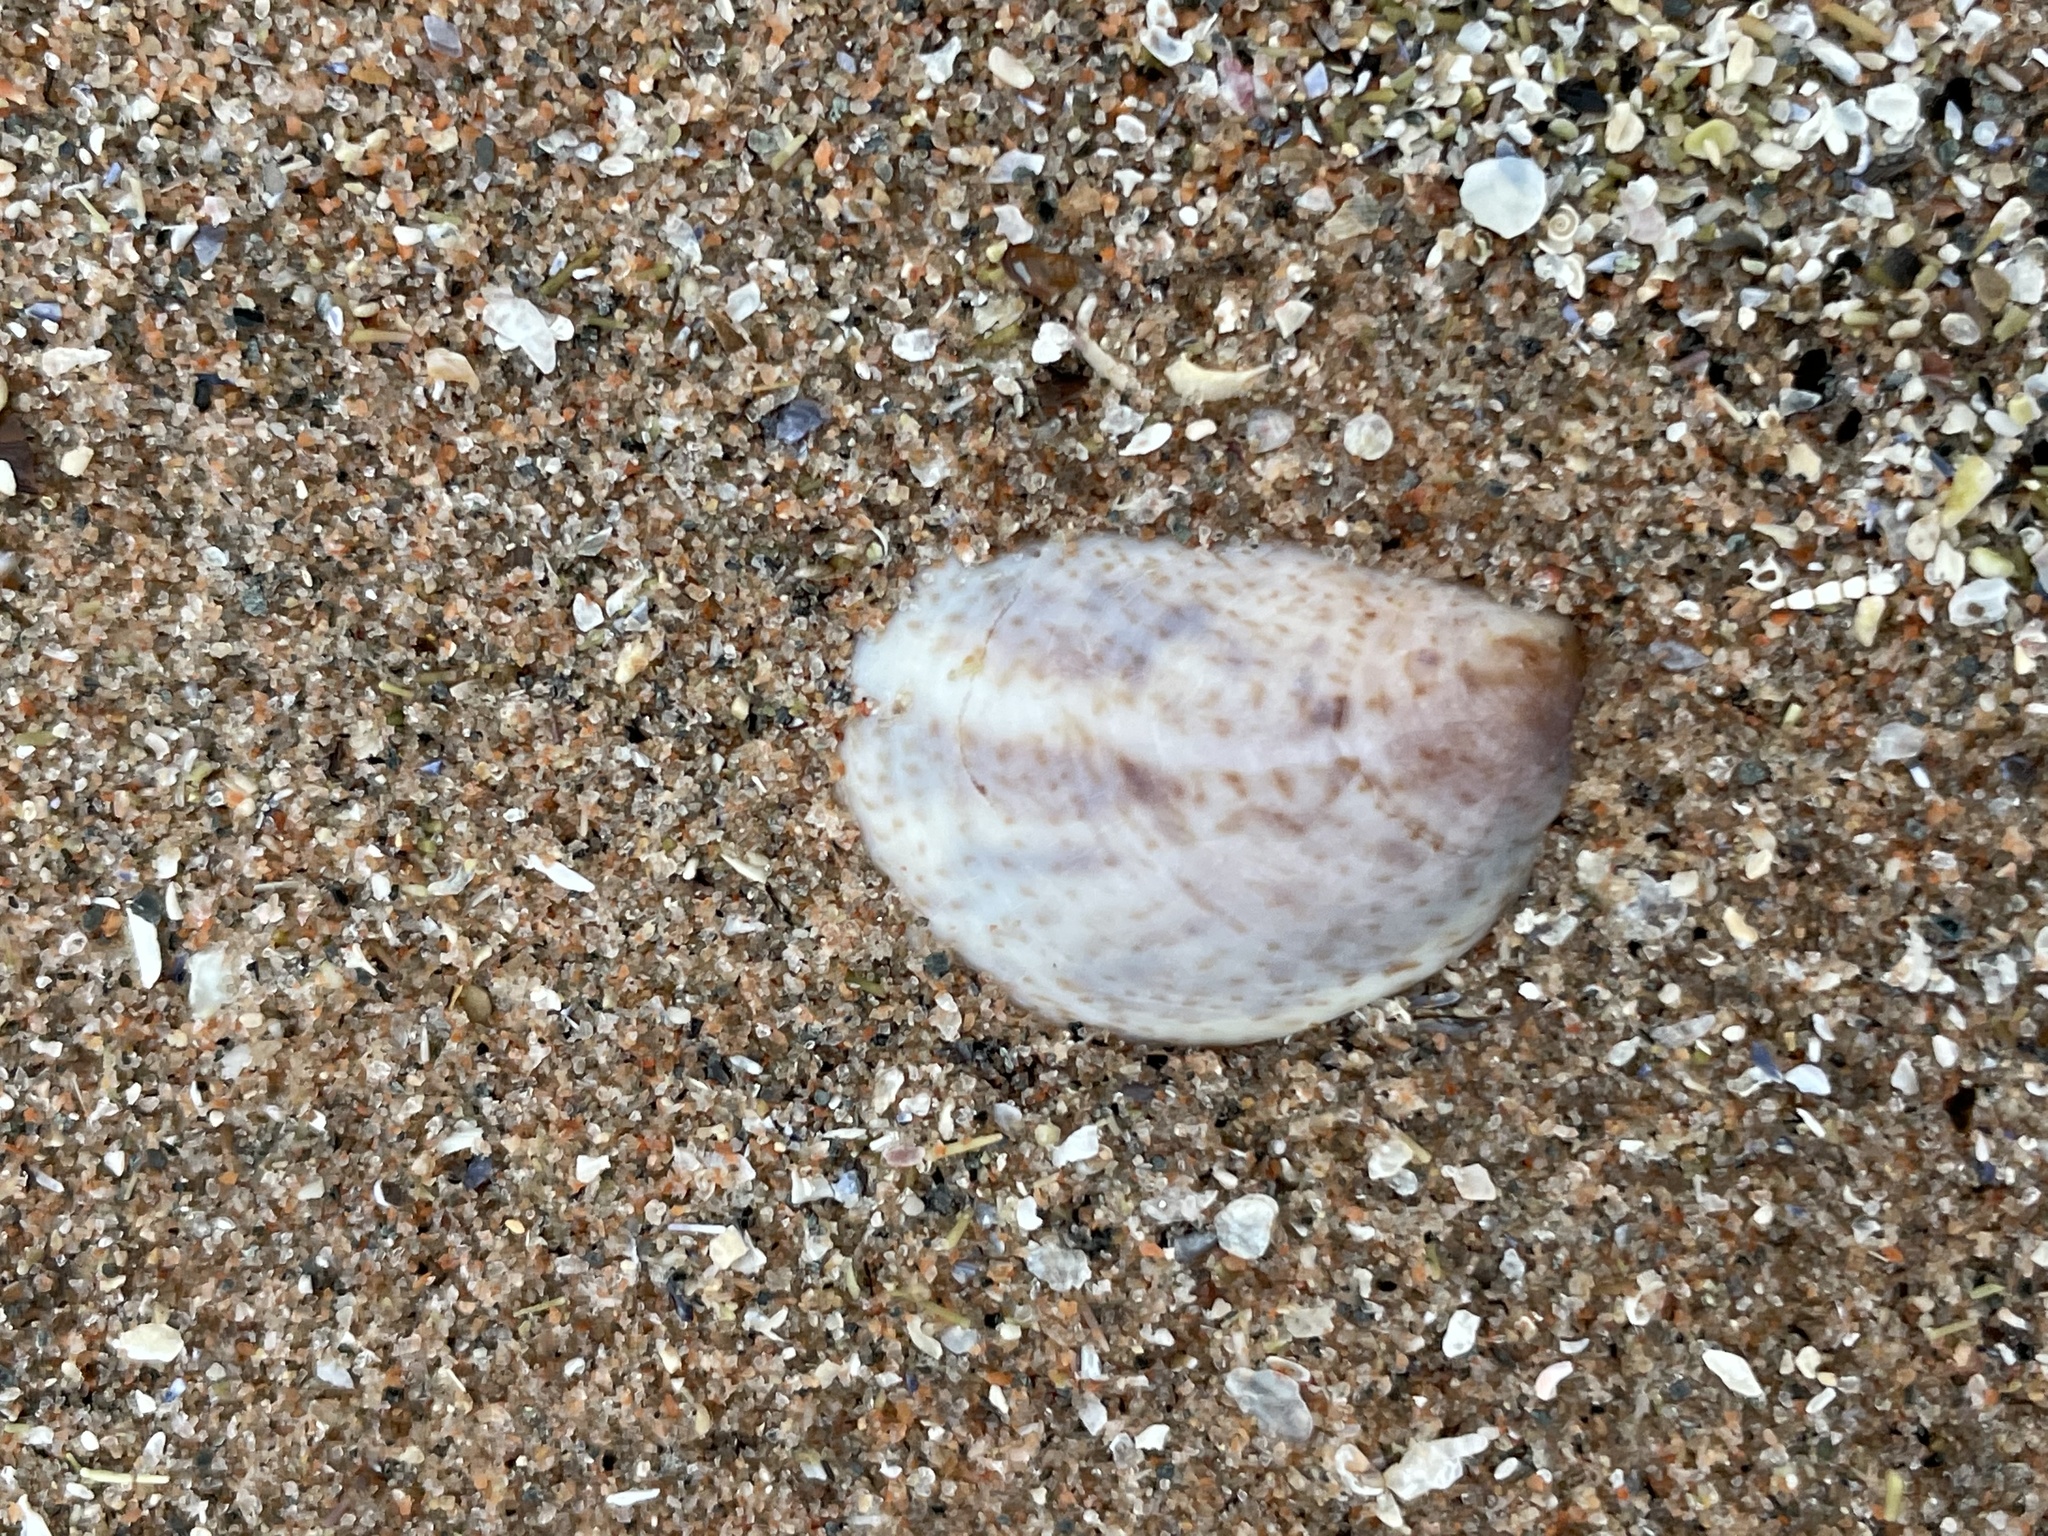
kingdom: Animalia
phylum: Mollusca
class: Gastropoda
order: Littorinimorpha
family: Calyptraeidae
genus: Crepidula
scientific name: Crepidula fornicata
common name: Slipper limpet
